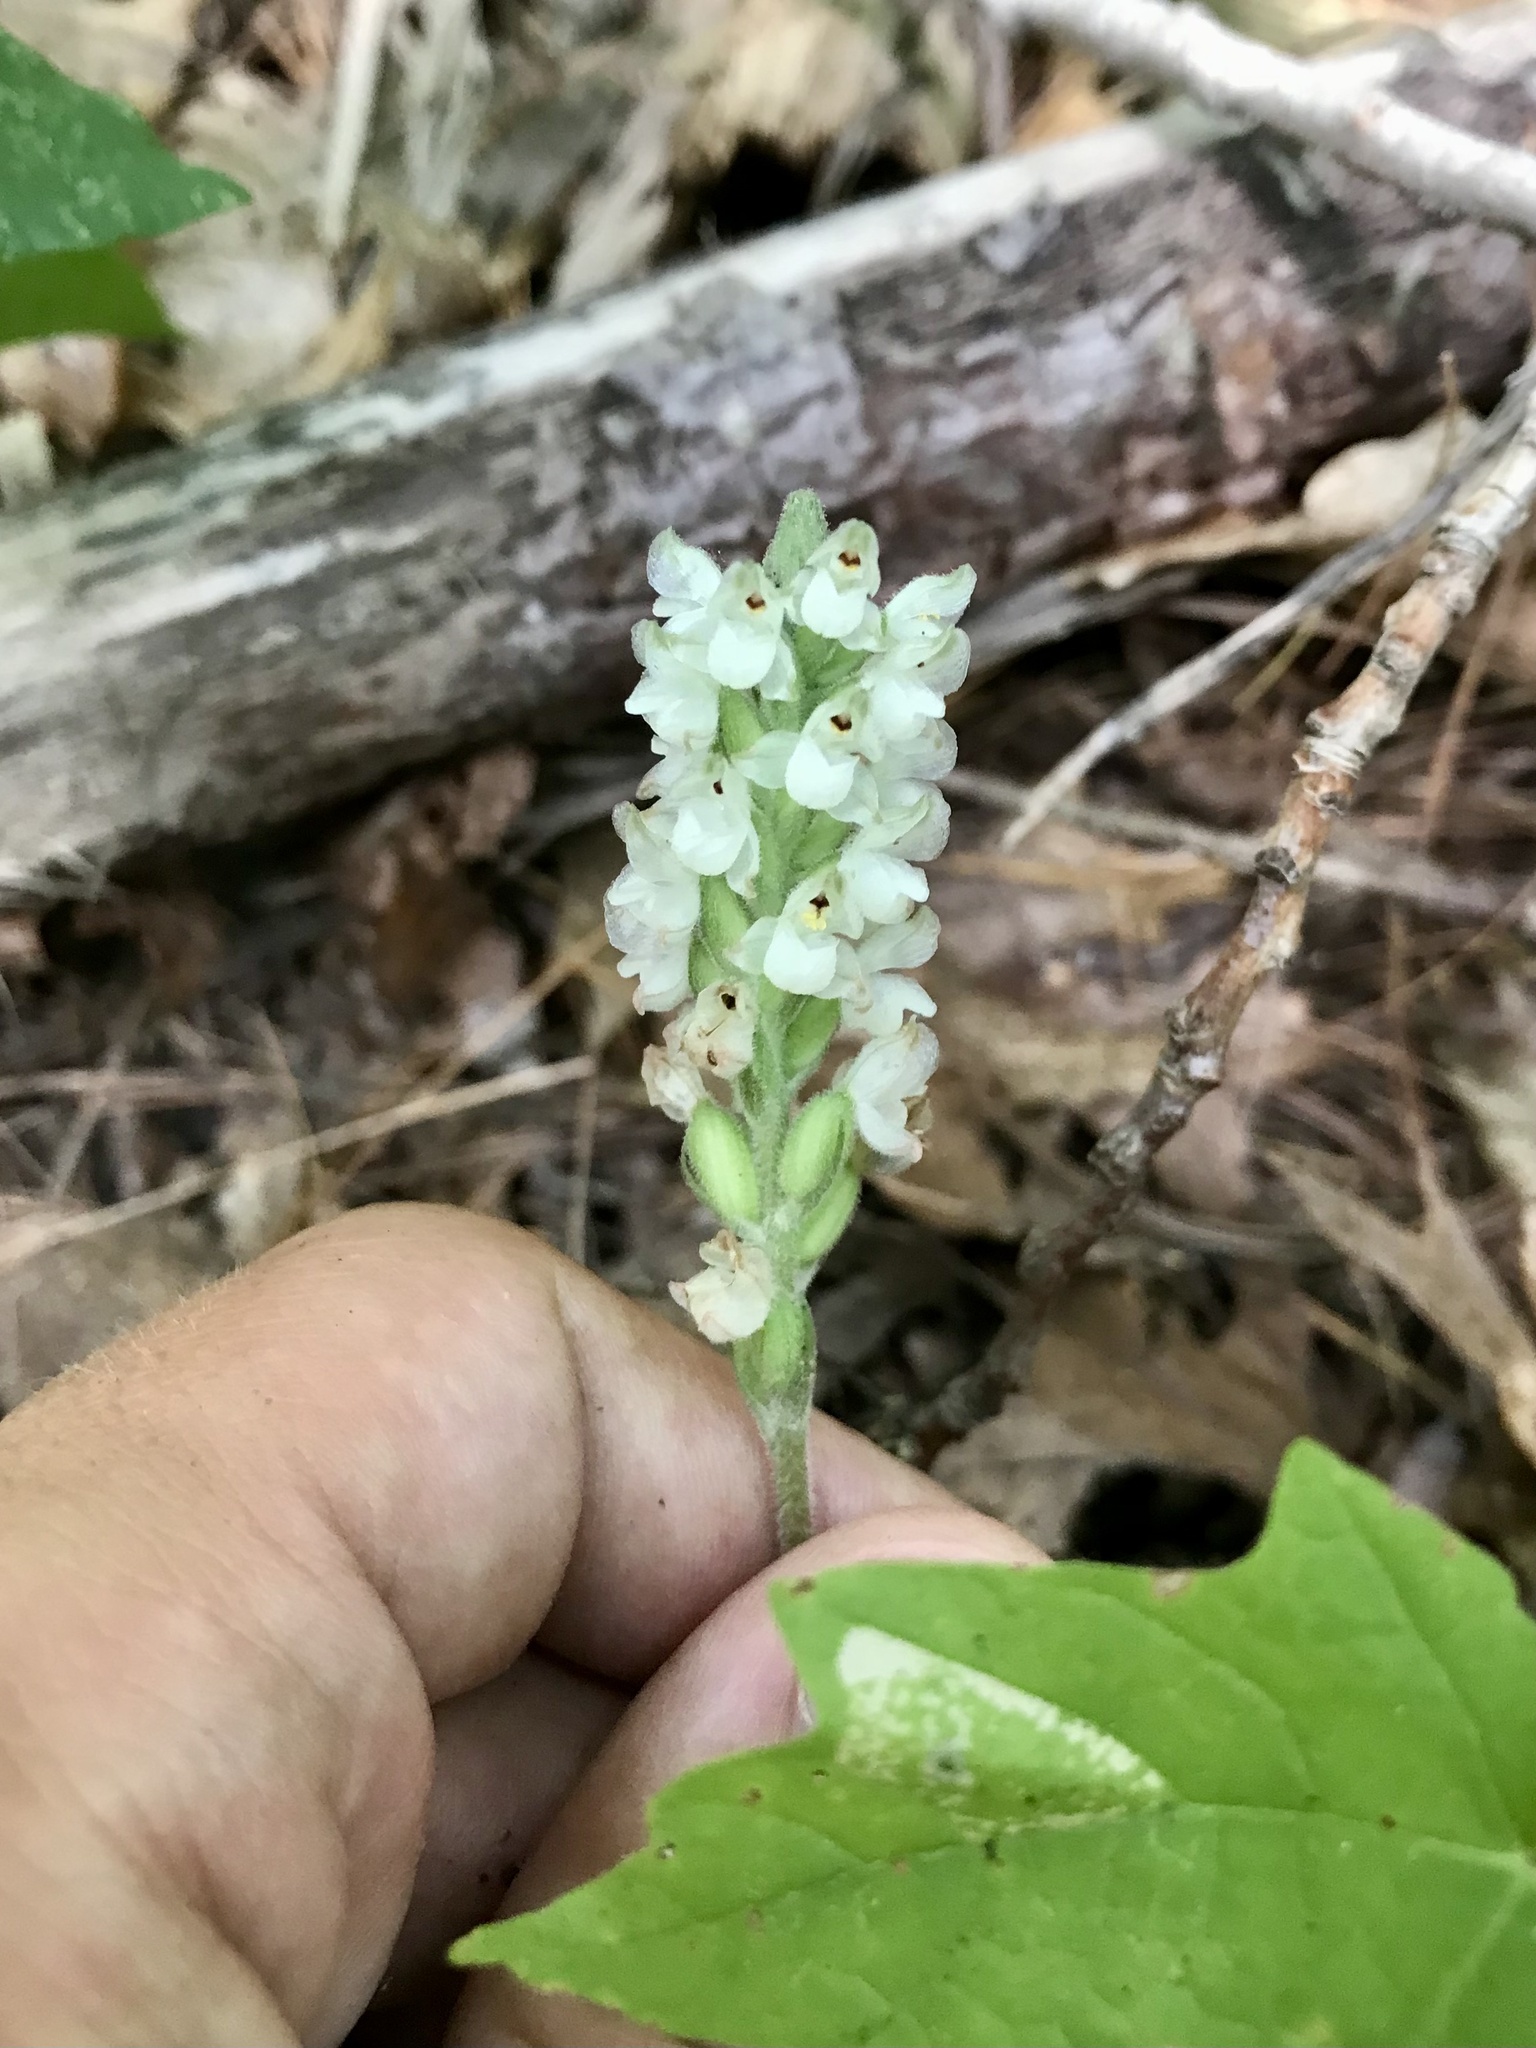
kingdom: Plantae
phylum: Tracheophyta
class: Liliopsida
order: Asparagales
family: Orchidaceae
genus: Goodyera
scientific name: Goodyera pubescens
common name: Downy rattlesnake-plantain
